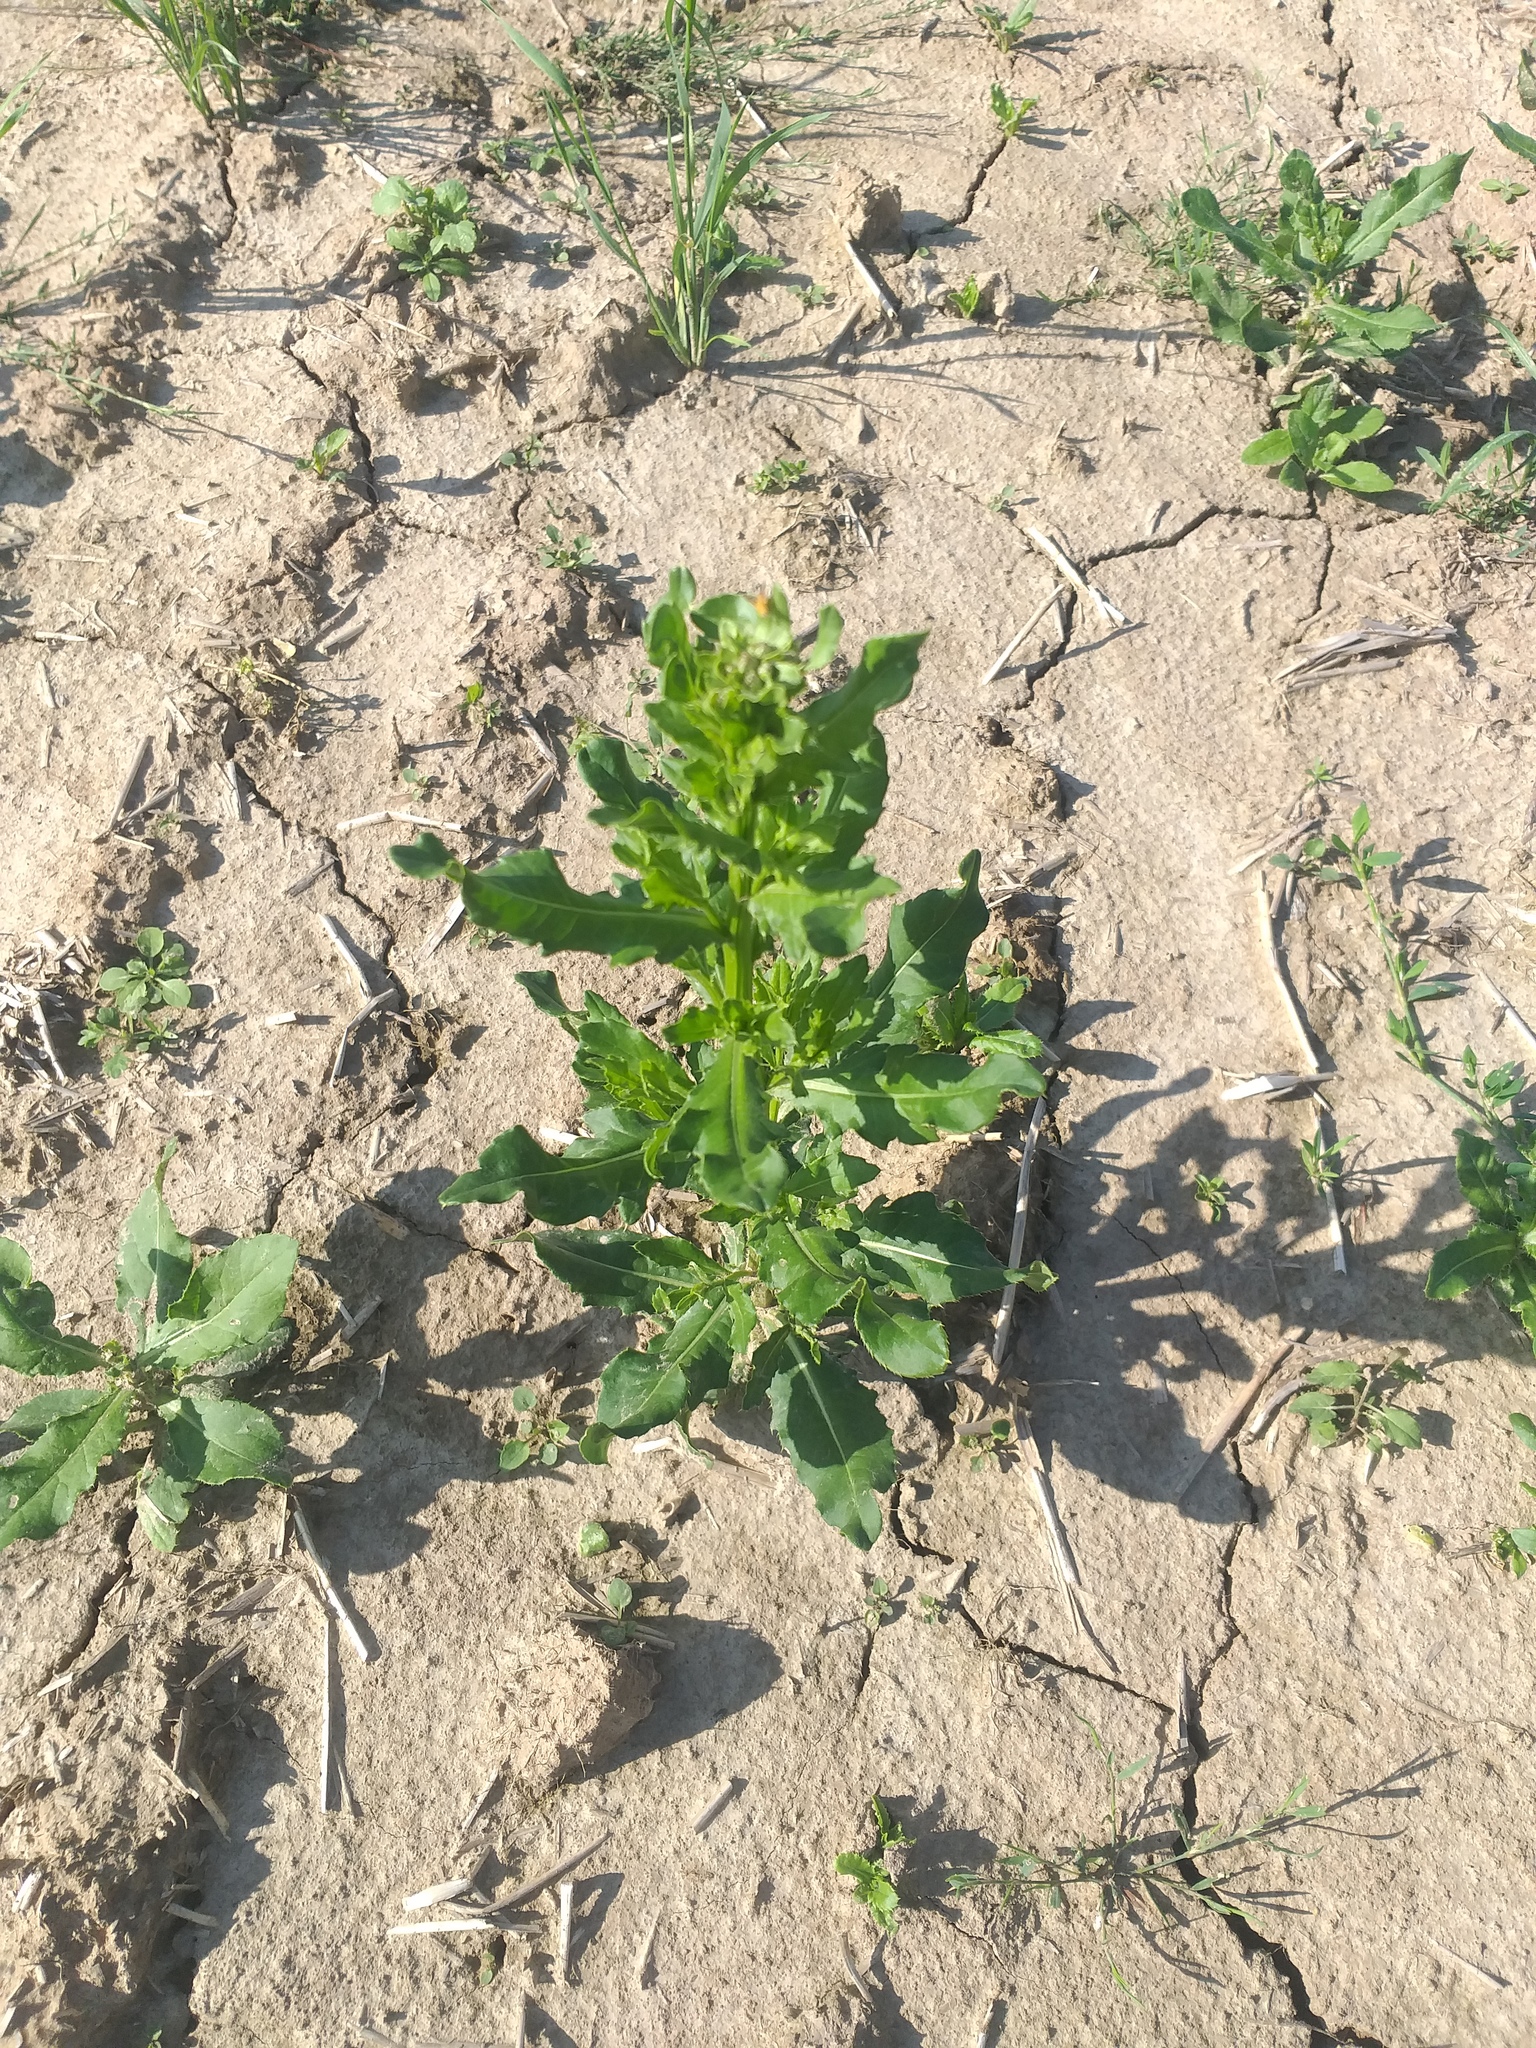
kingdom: Plantae
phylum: Tracheophyta
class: Magnoliopsida
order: Asterales
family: Asteraceae
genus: Cirsium
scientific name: Cirsium arvense
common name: Creeping thistle
